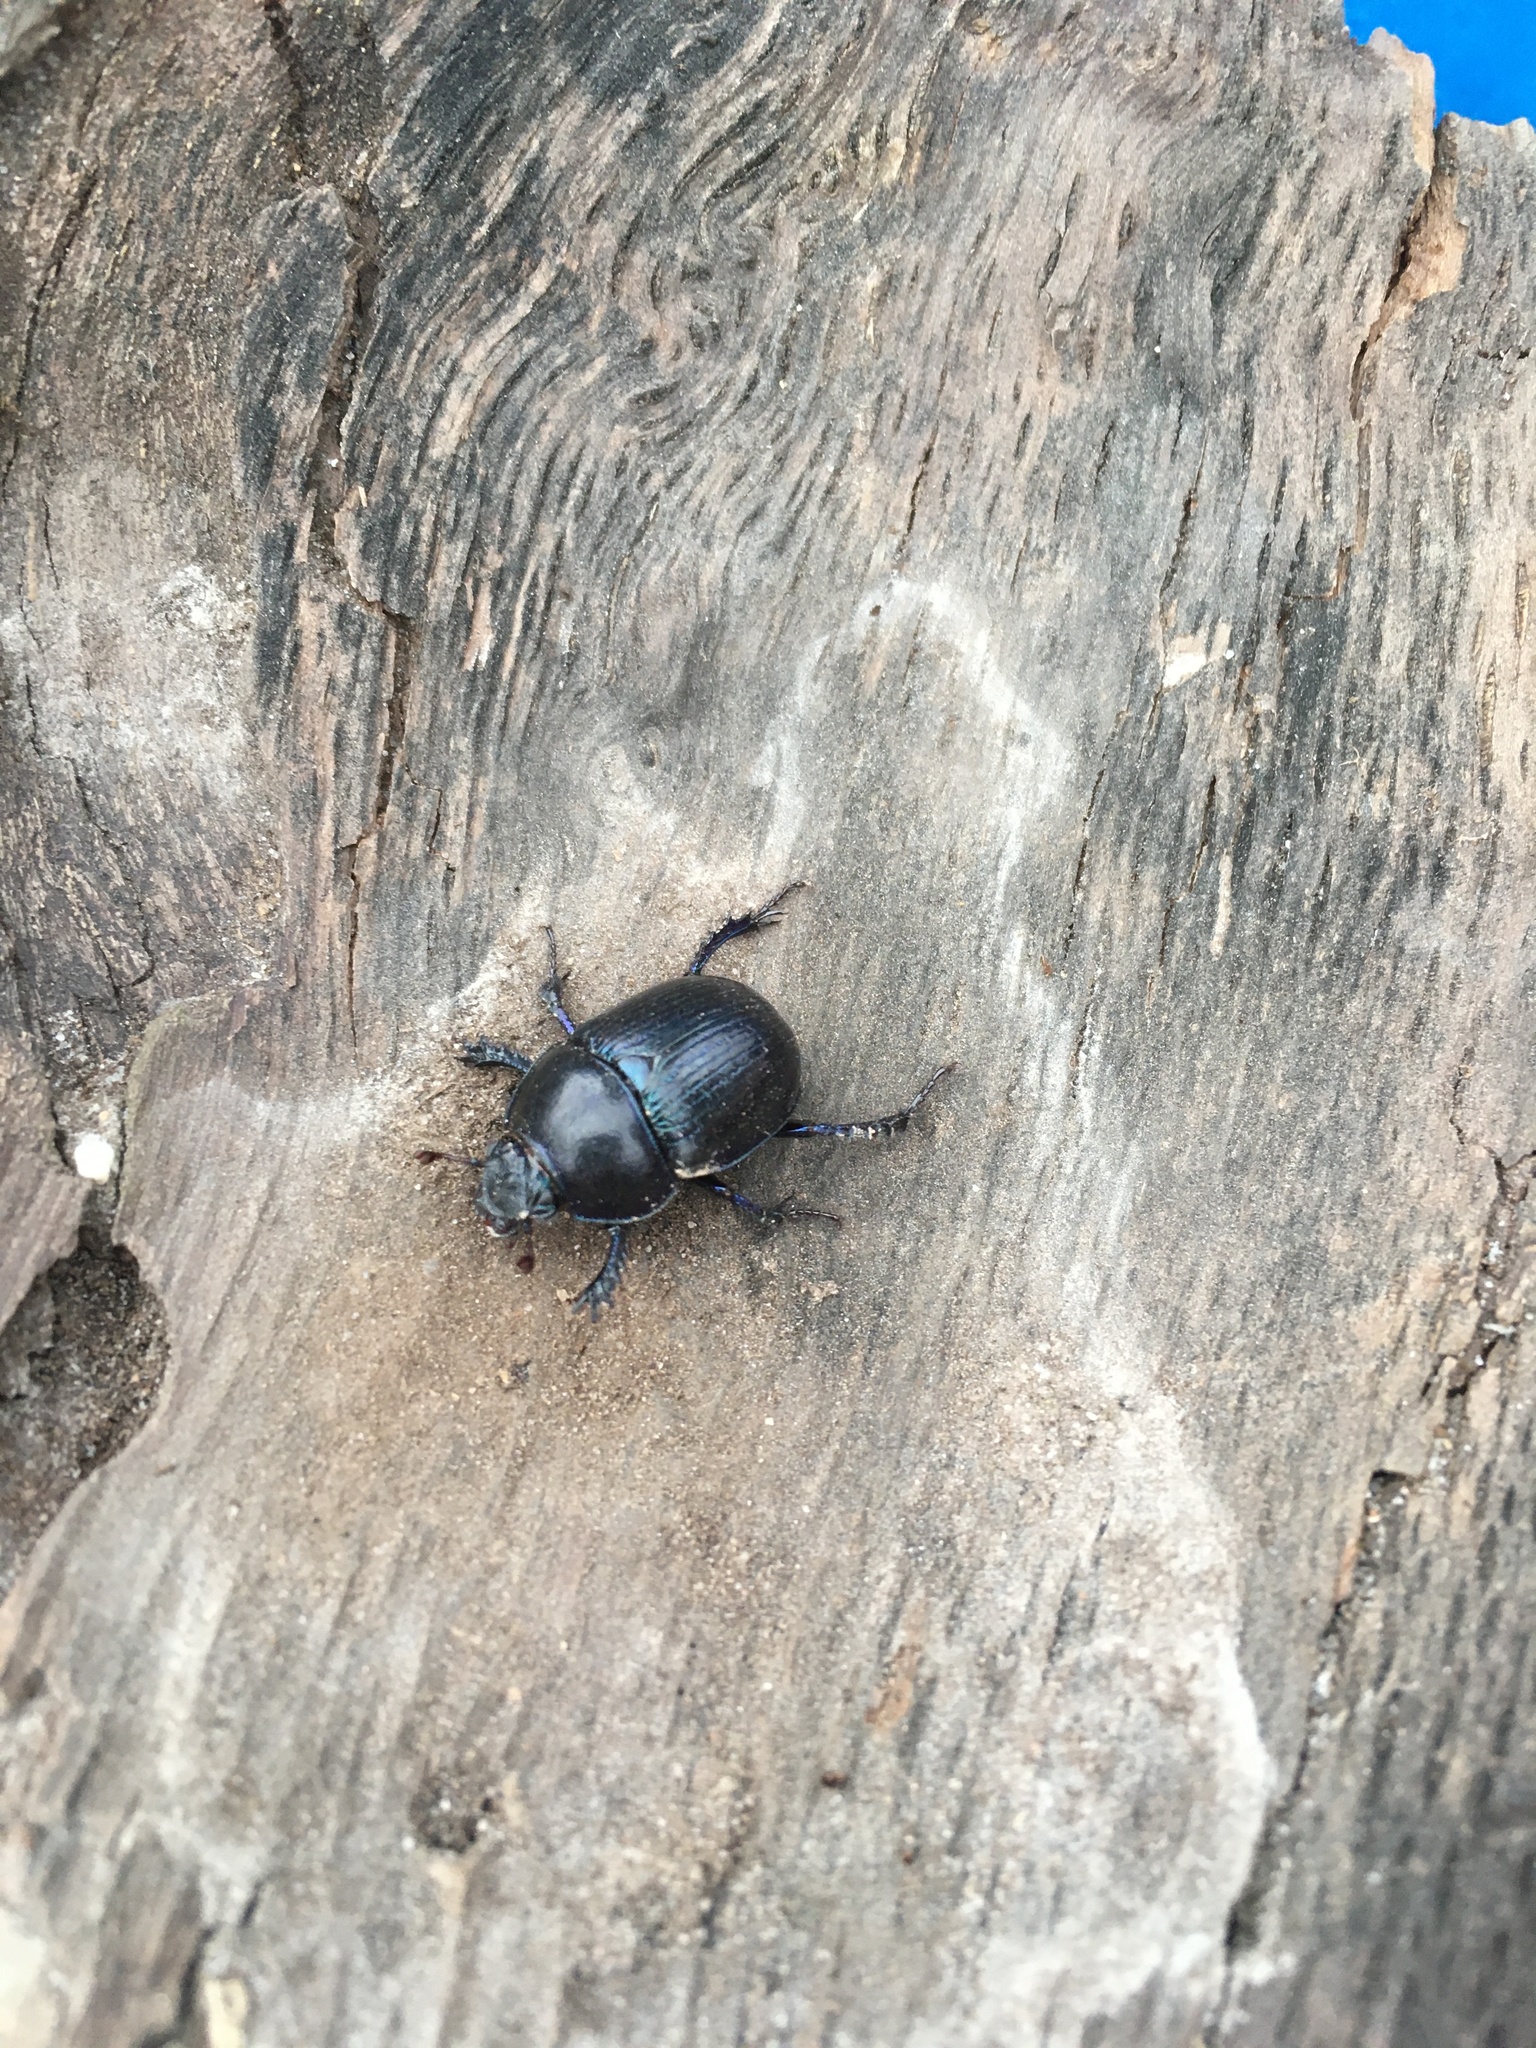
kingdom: Animalia
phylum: Arthropoda
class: Insecta
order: Coleoptera
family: Geotrupidae
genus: Anoplotrupes
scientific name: Anoplotrupes stercorosus
